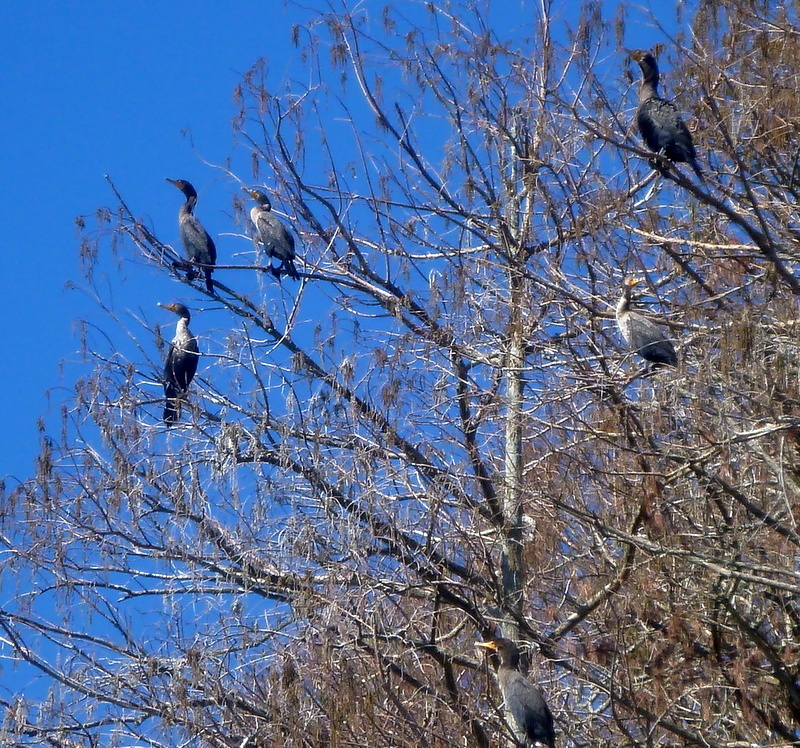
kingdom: Animalia
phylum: Chordata
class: Aves
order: Suliformes
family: Phalacrocoracidae
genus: Phalacrocorax
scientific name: Phalacrocorax auritus
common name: Double-crested cormorant
